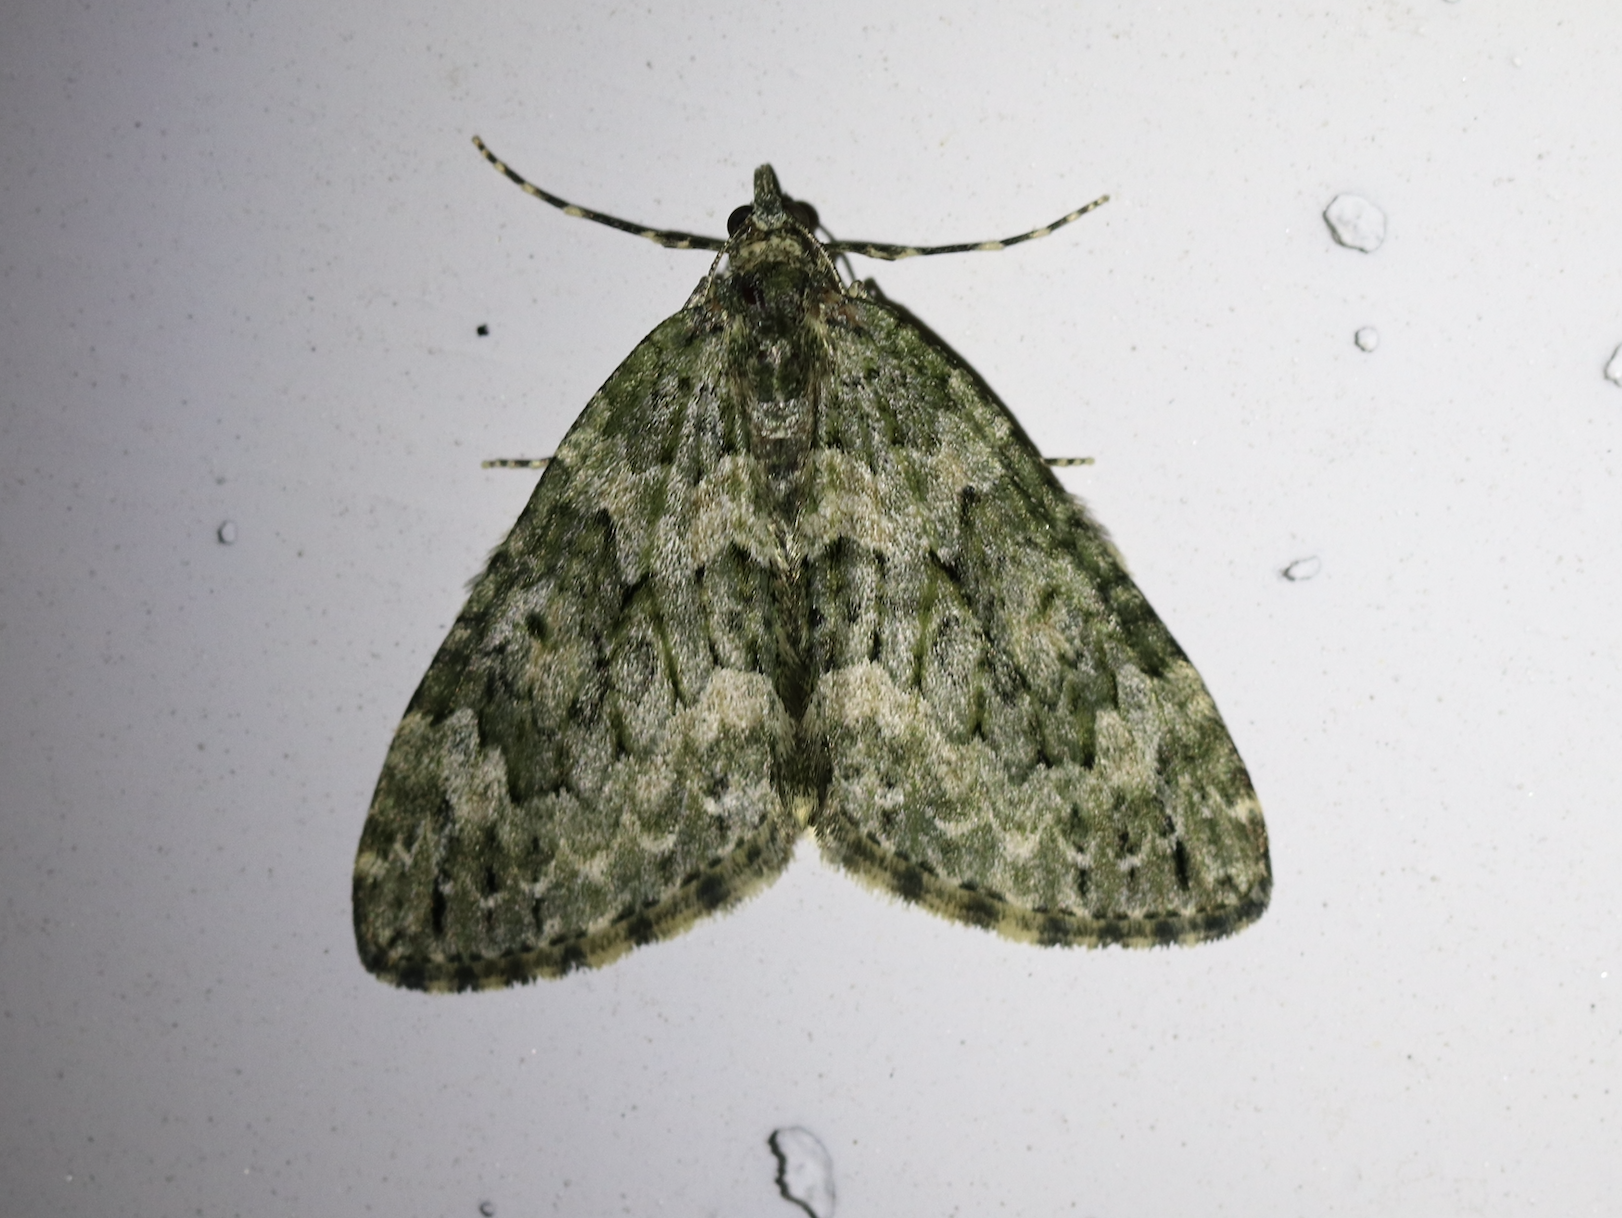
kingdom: Animalia
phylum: Arthropoda
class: Insecta
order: Lepidoptera
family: Geometridae
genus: Chloroclysta
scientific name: Chloroclysta miata
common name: Autumn green carpet
